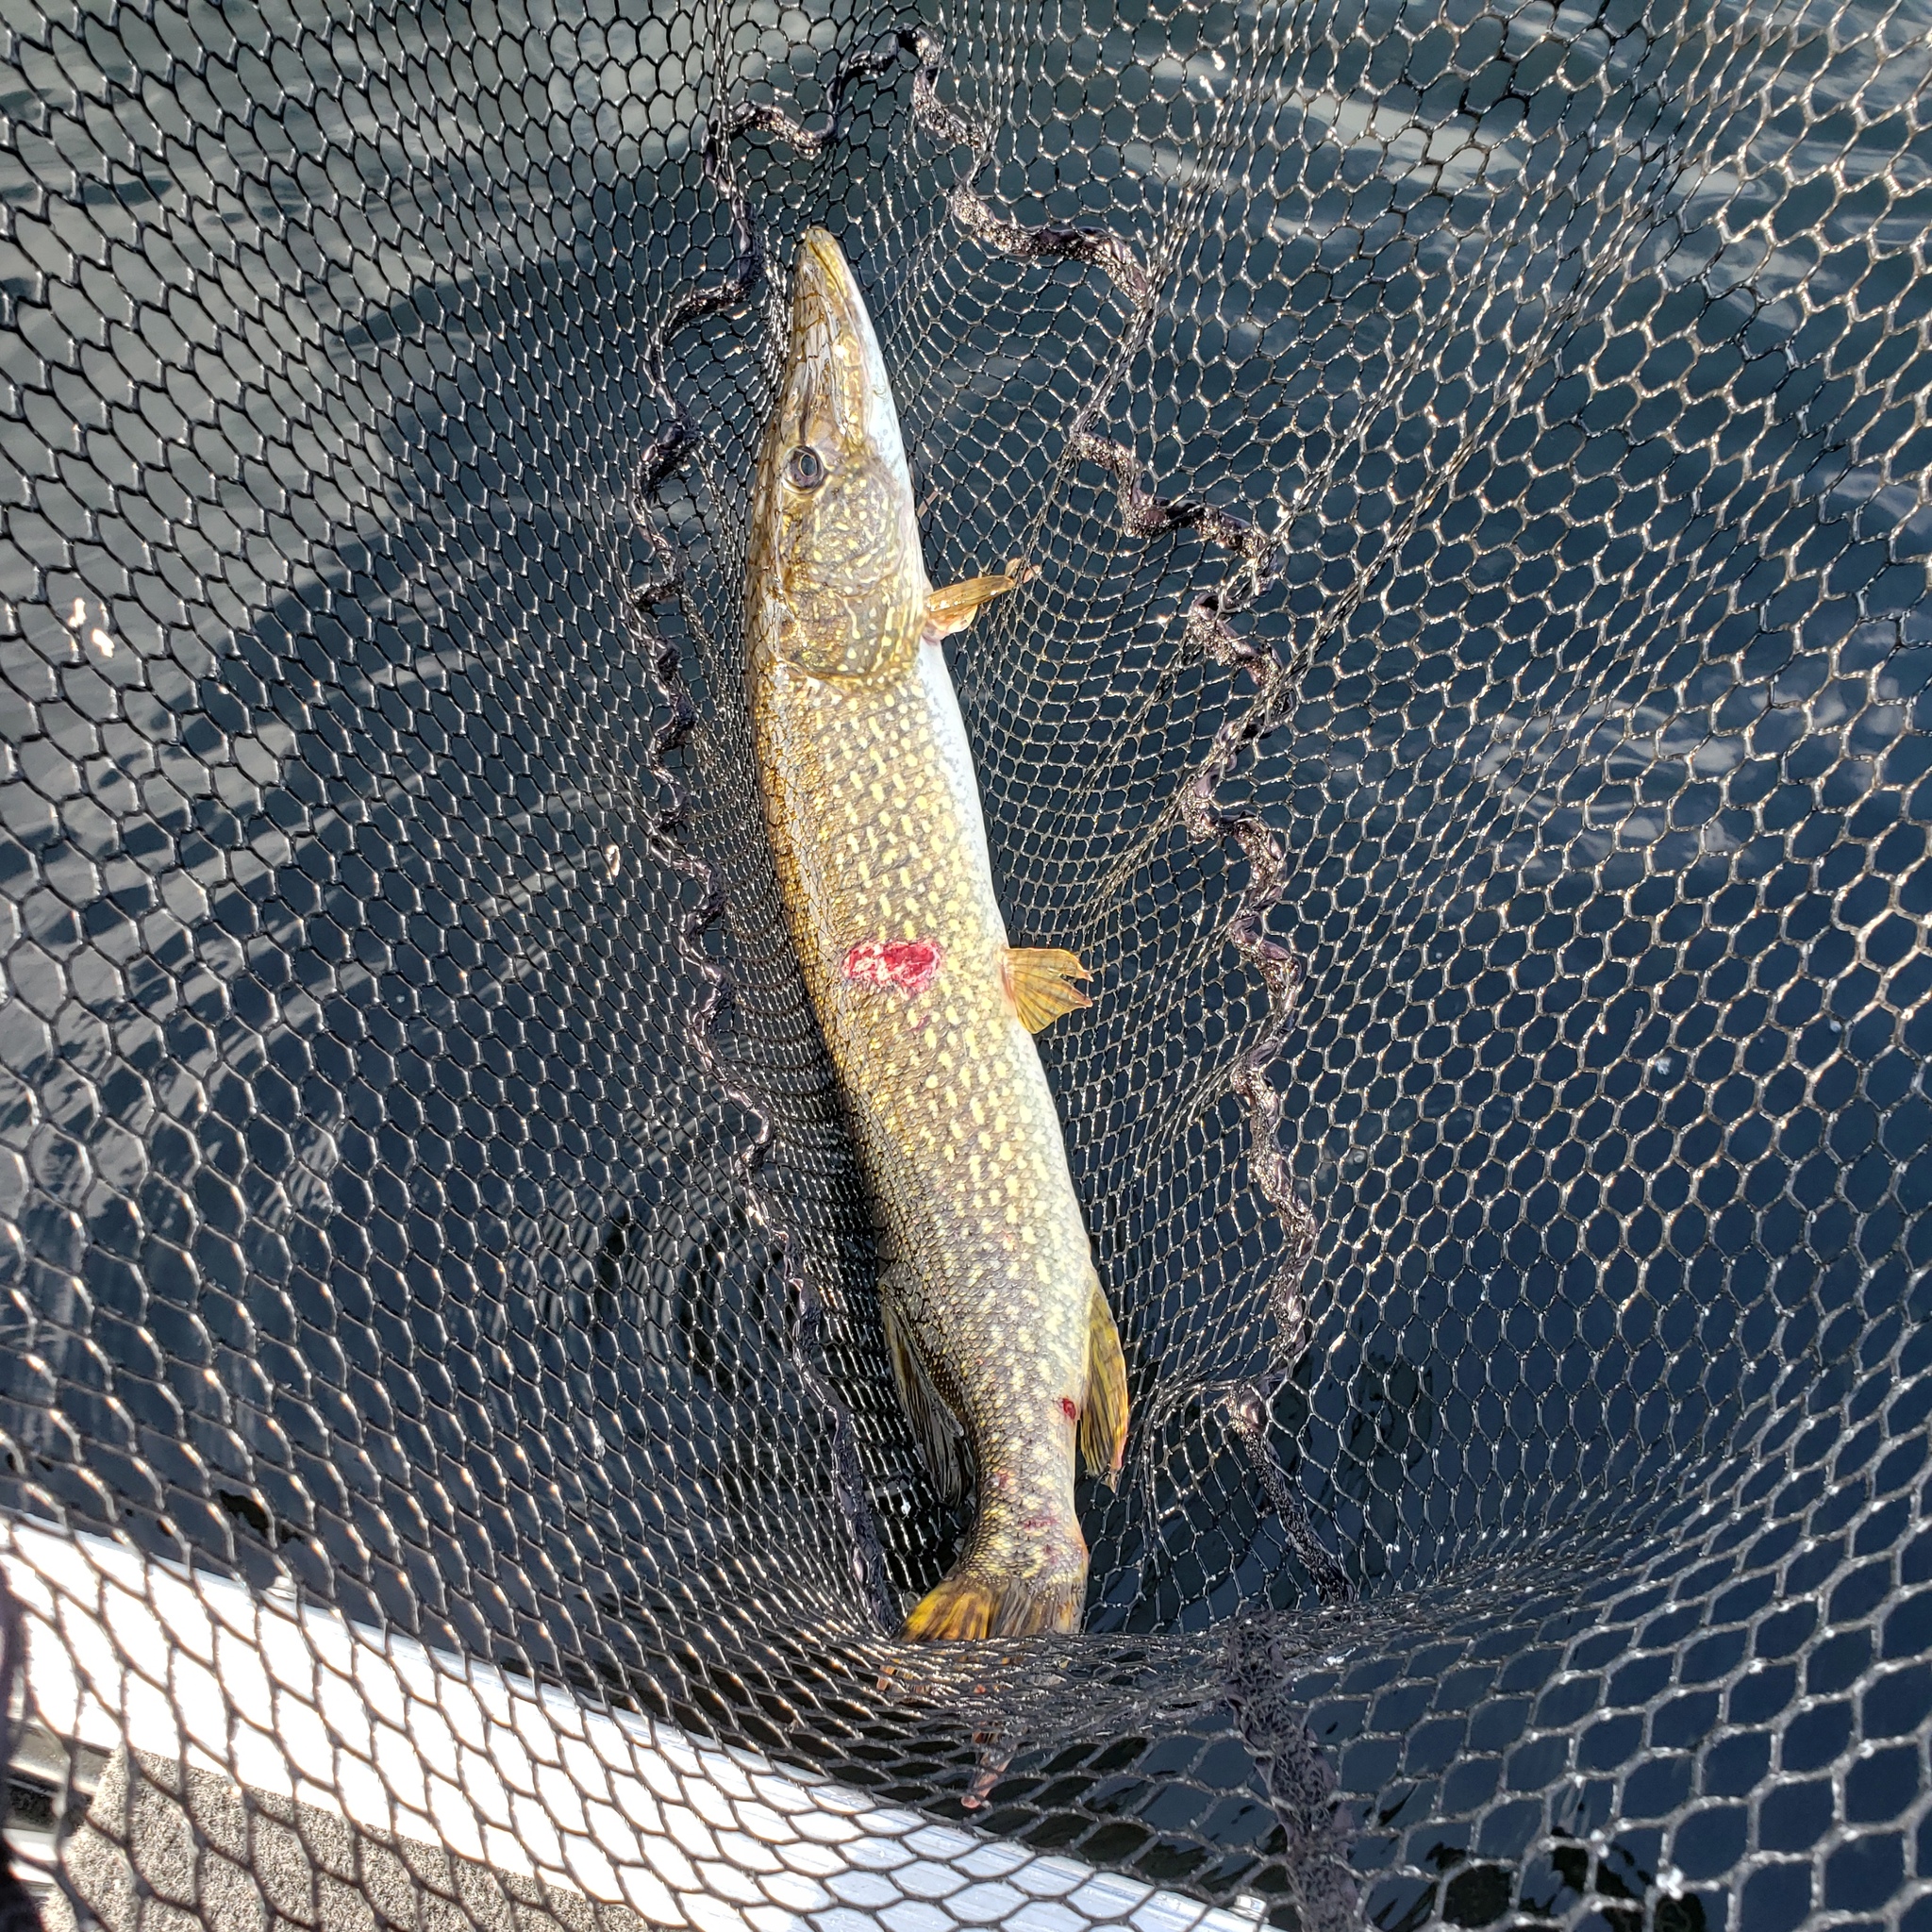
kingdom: Animalia
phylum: Chordata
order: Esociformes
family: Esocidae
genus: Esox
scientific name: Esox lucius
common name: Northern pike
